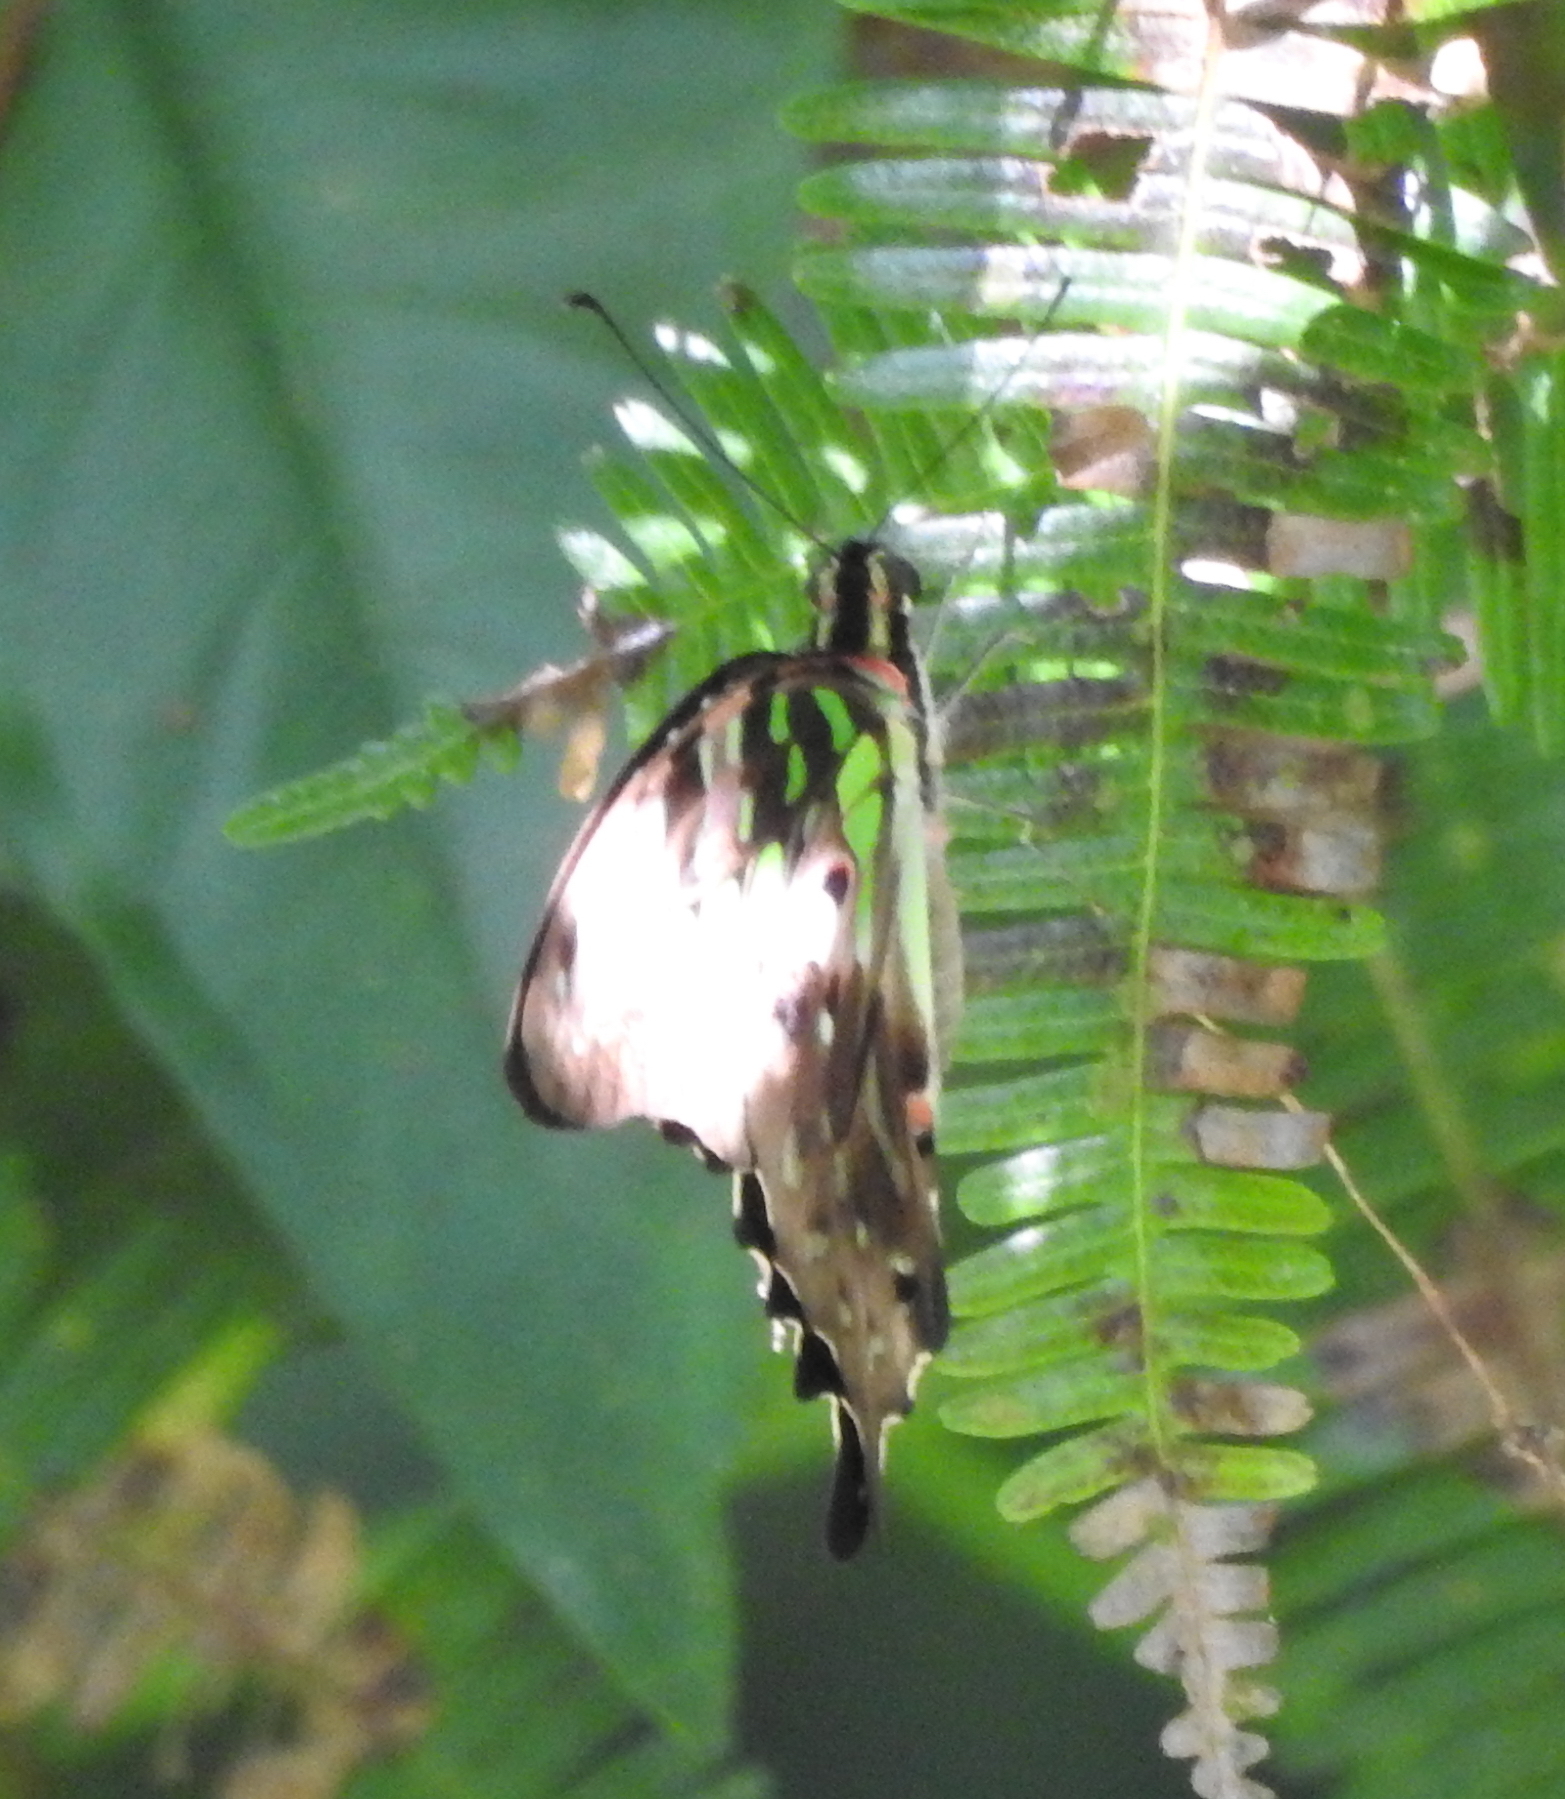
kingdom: Animalia
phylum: Arthropoda
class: Insecta
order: Lepidoptera
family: Papilionidae
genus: Graphium
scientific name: Graphium agamemnon
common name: Tailed jay
